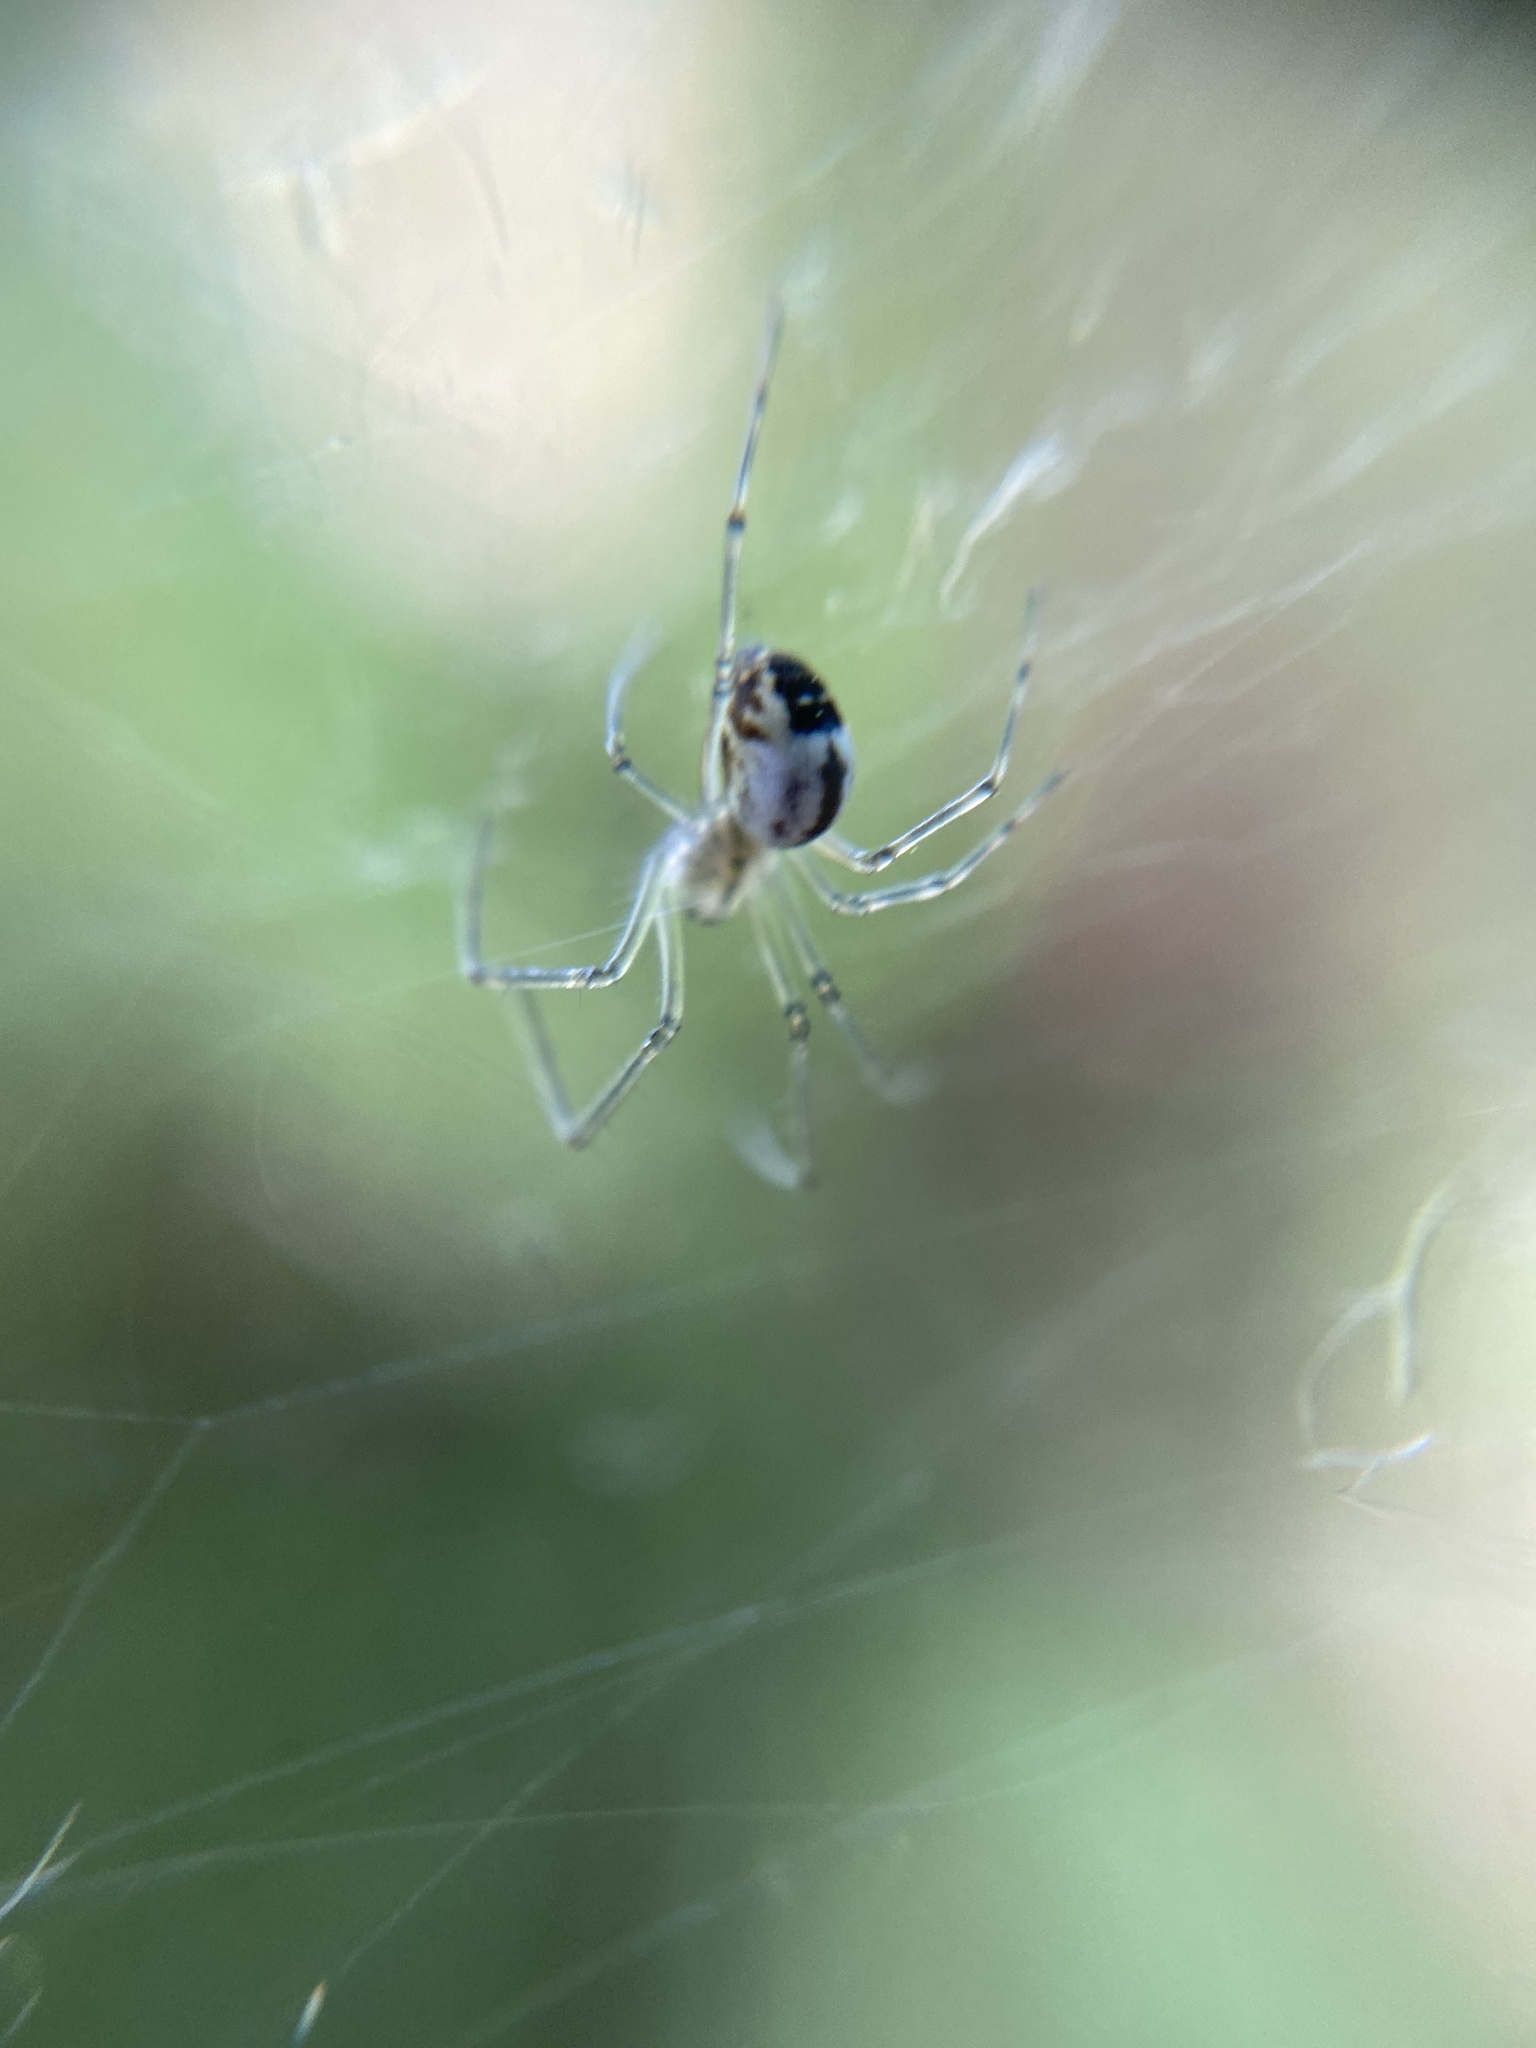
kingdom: Animalia
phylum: Arthropoda
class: Arachnida
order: Araneae
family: Linyphiidae
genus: Neriene
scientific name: Neriene emphana
